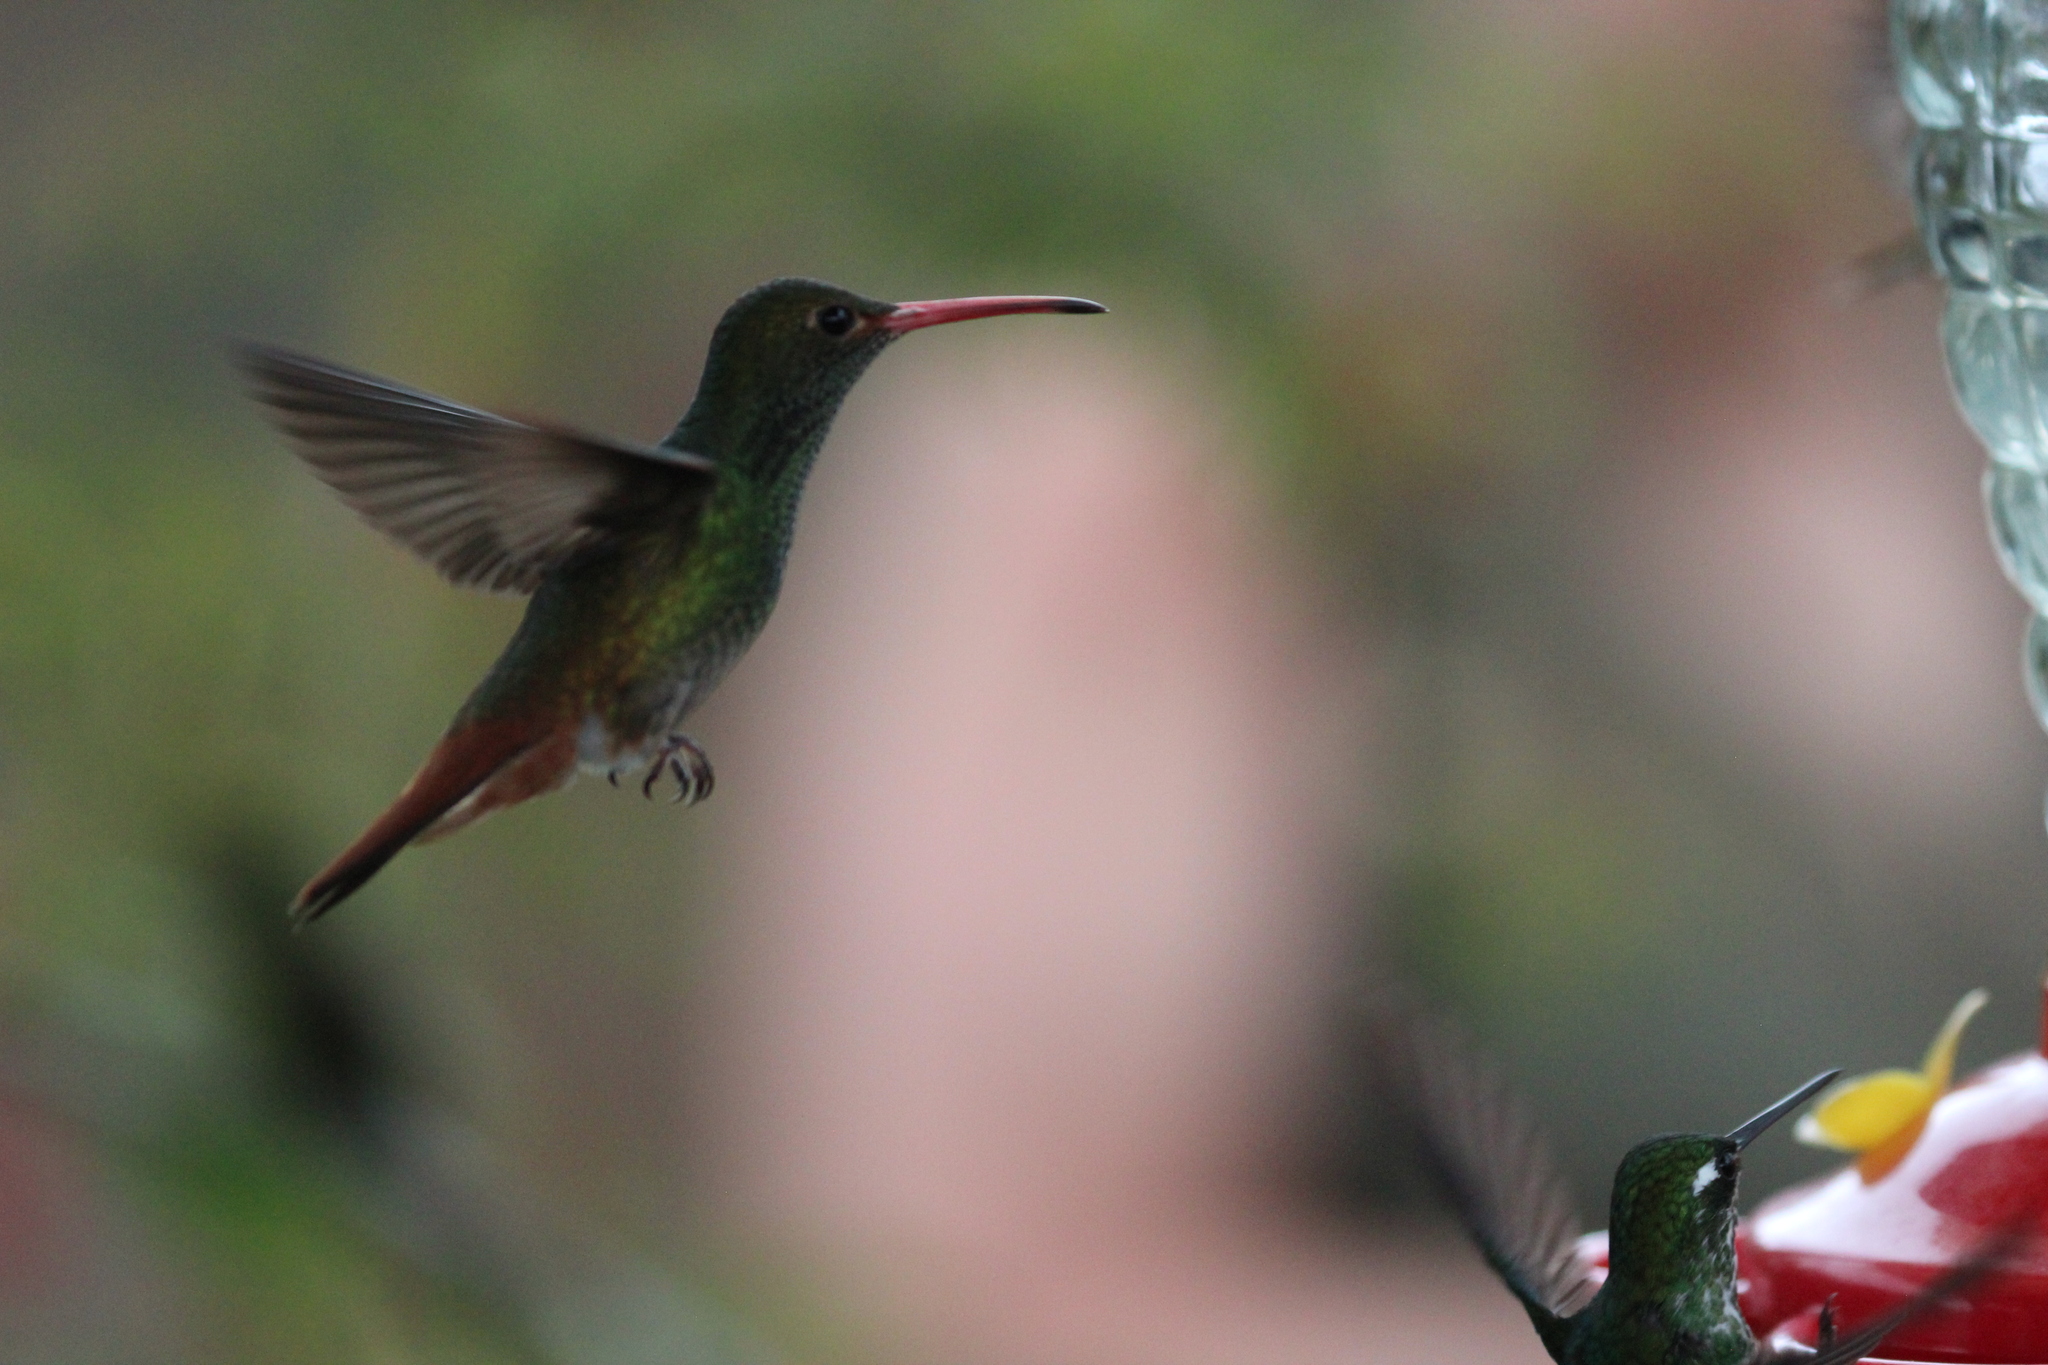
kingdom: Animalia
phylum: Chordata
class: Aves
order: Apodiformes
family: Trochilidae
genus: Amazilia
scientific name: Amazilia tzacatl
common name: Rufous-tailed hummingbird
